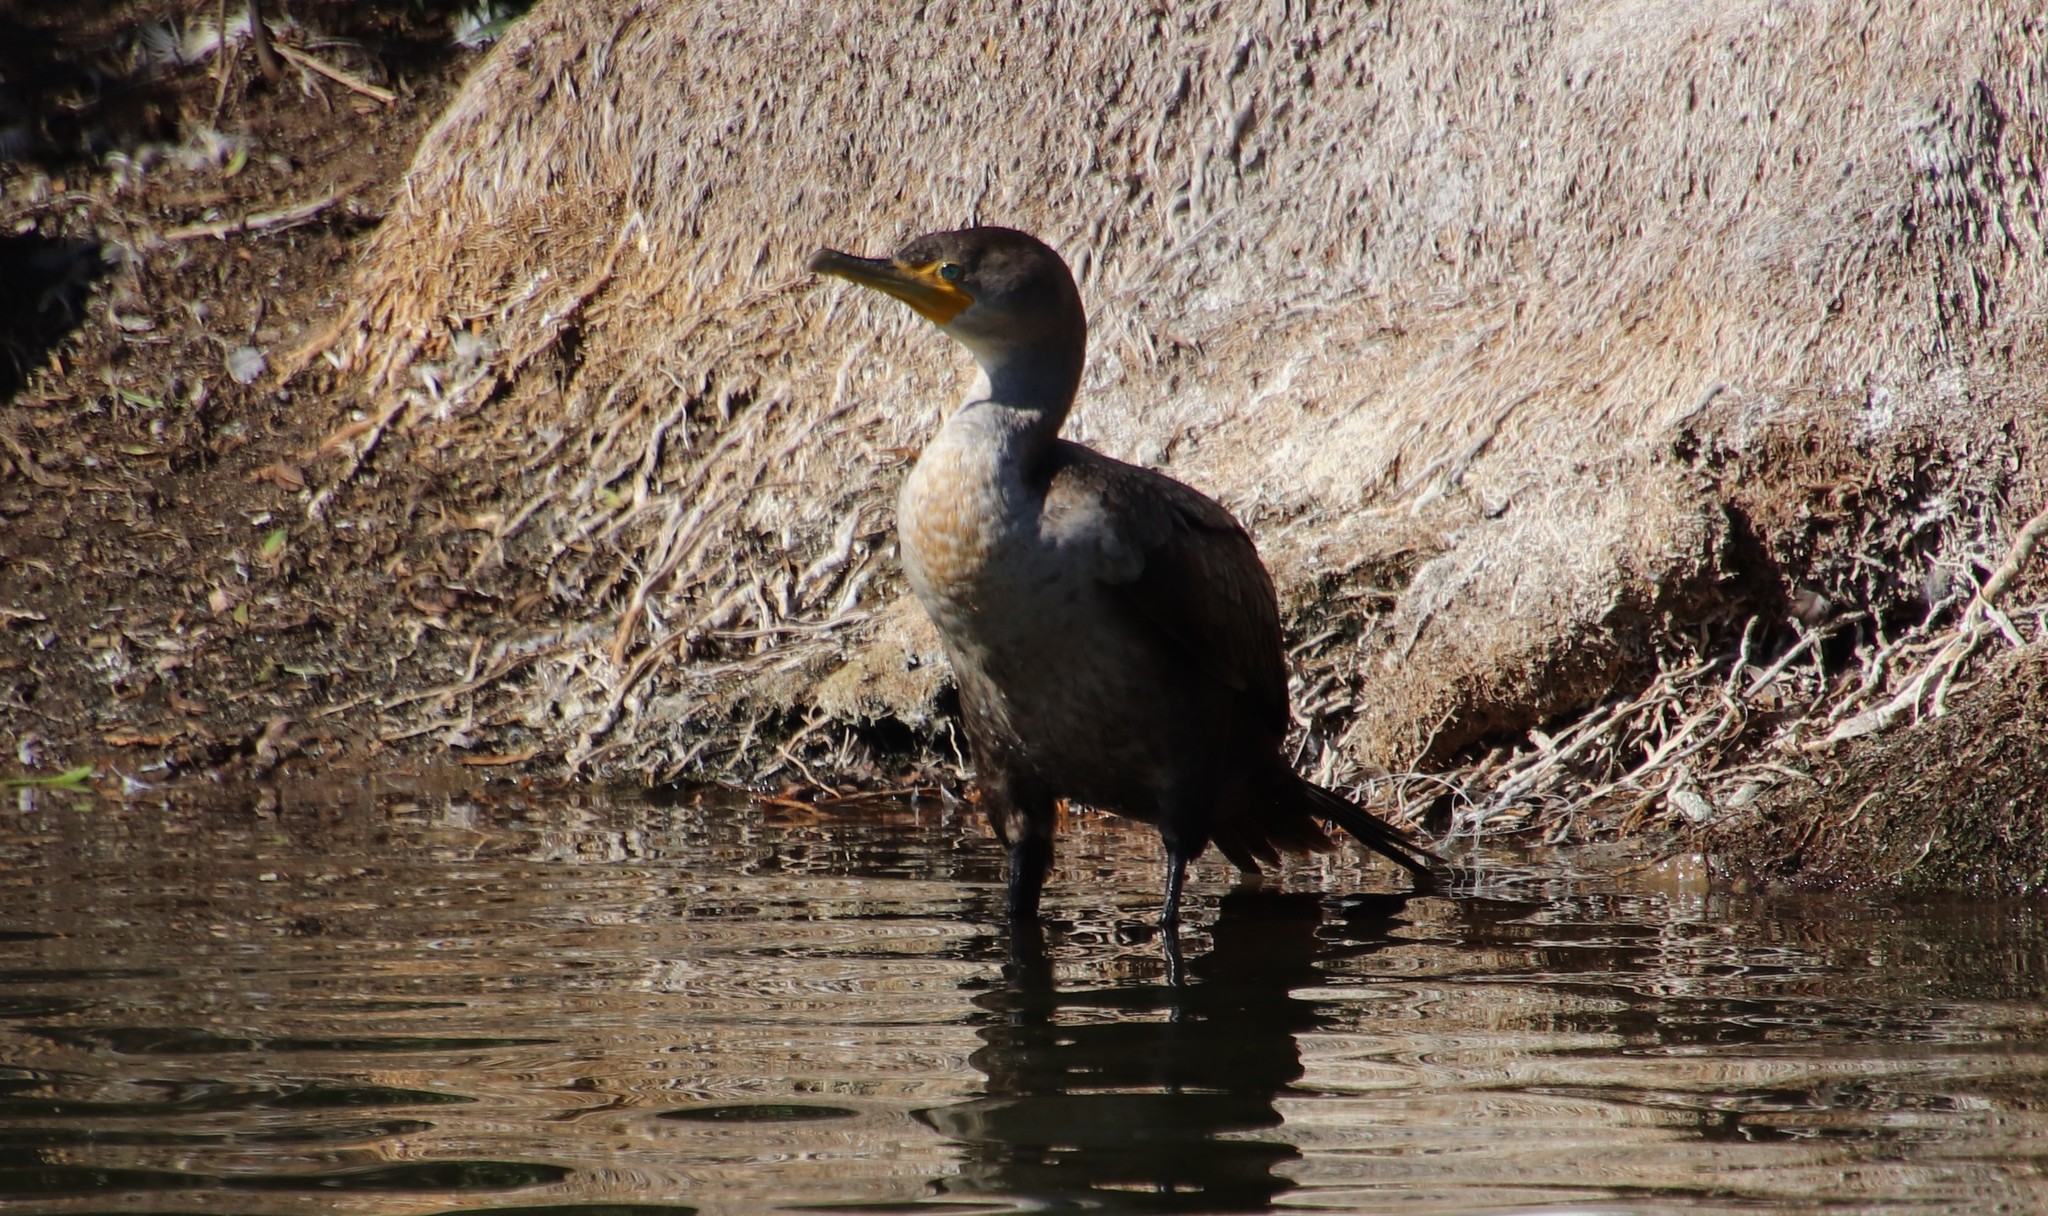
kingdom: Animalia
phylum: Chordata
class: Aves
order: Suliformes
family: Phalacrocoracidae
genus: Phalacrocorax
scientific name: Phalacrocorax auritus
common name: Double-crested cormorant
